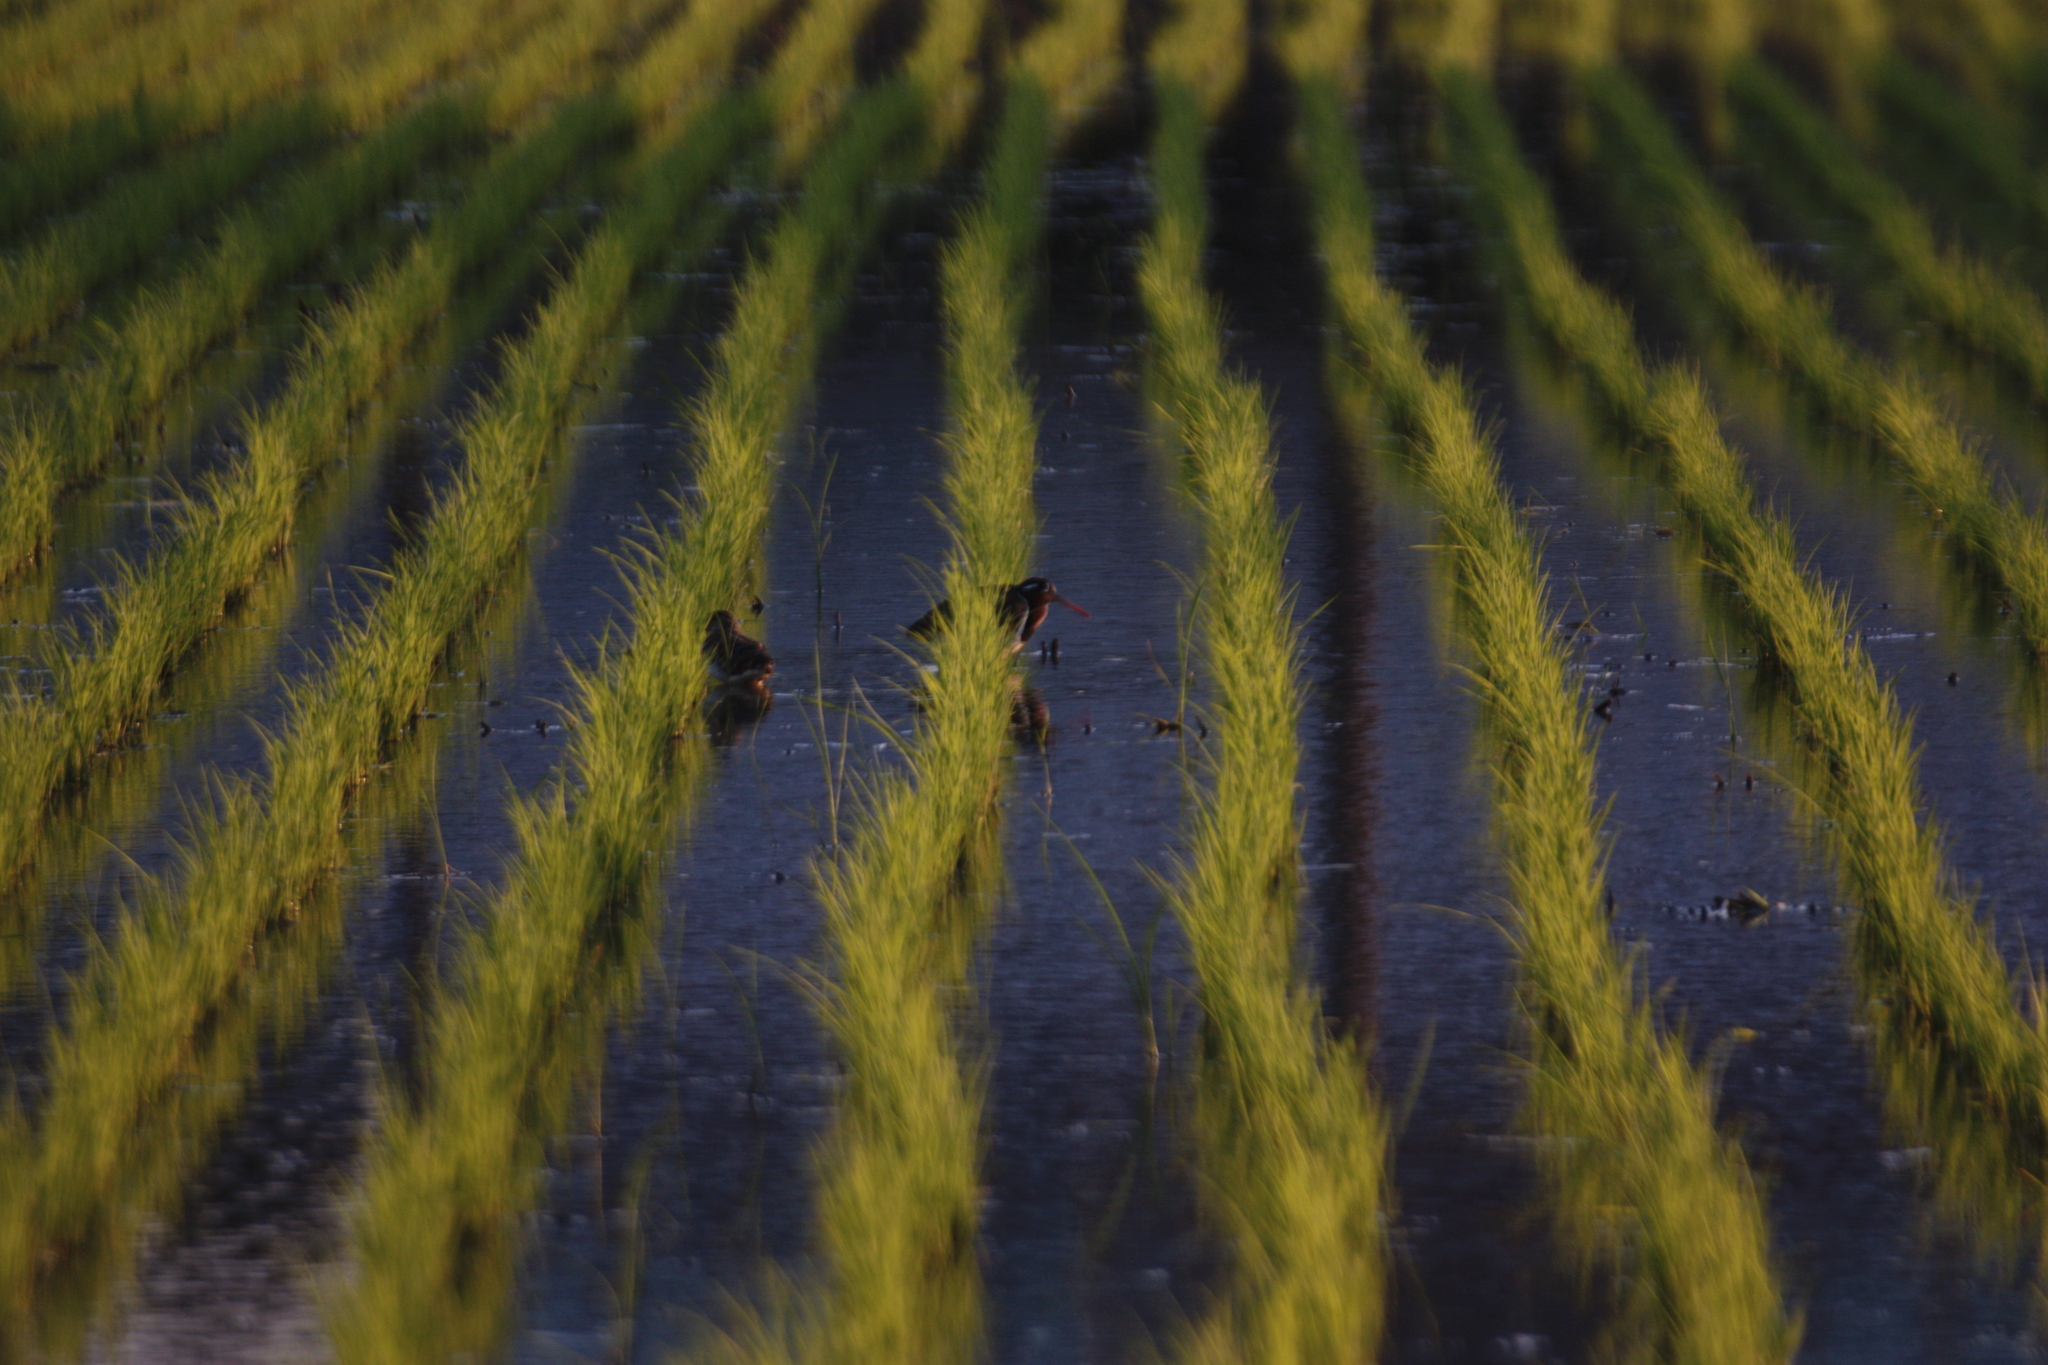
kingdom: Animalia
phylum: Chordata
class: Aves
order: Charadriiformes
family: Rostratulidae
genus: Rostratula
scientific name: Rostratula benghalensis
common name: Greater painted-snipe
